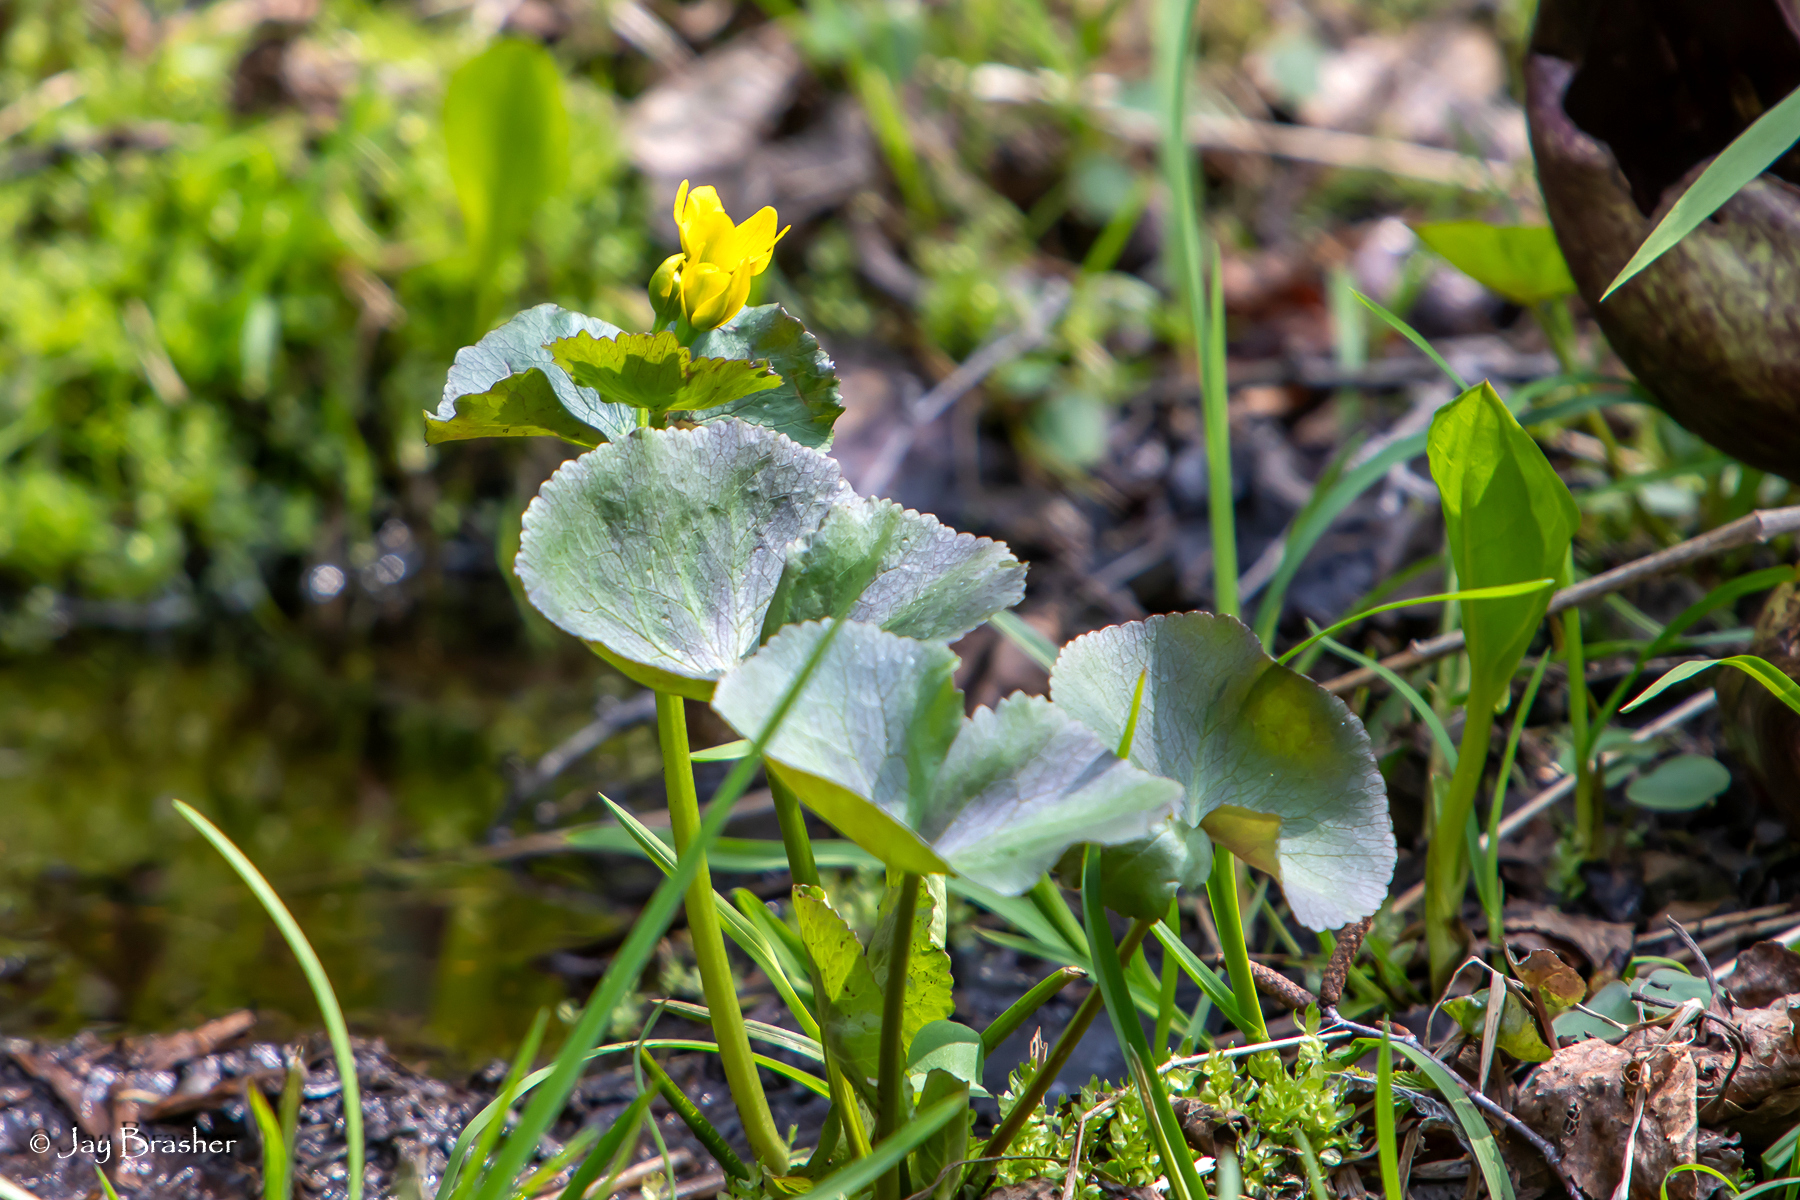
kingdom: Plantae
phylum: Tracheophyta
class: Magnoliopsida
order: Ranunculales
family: Ranunculaceae
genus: Caltha
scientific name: Caltha palustris
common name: Marsh marigold
